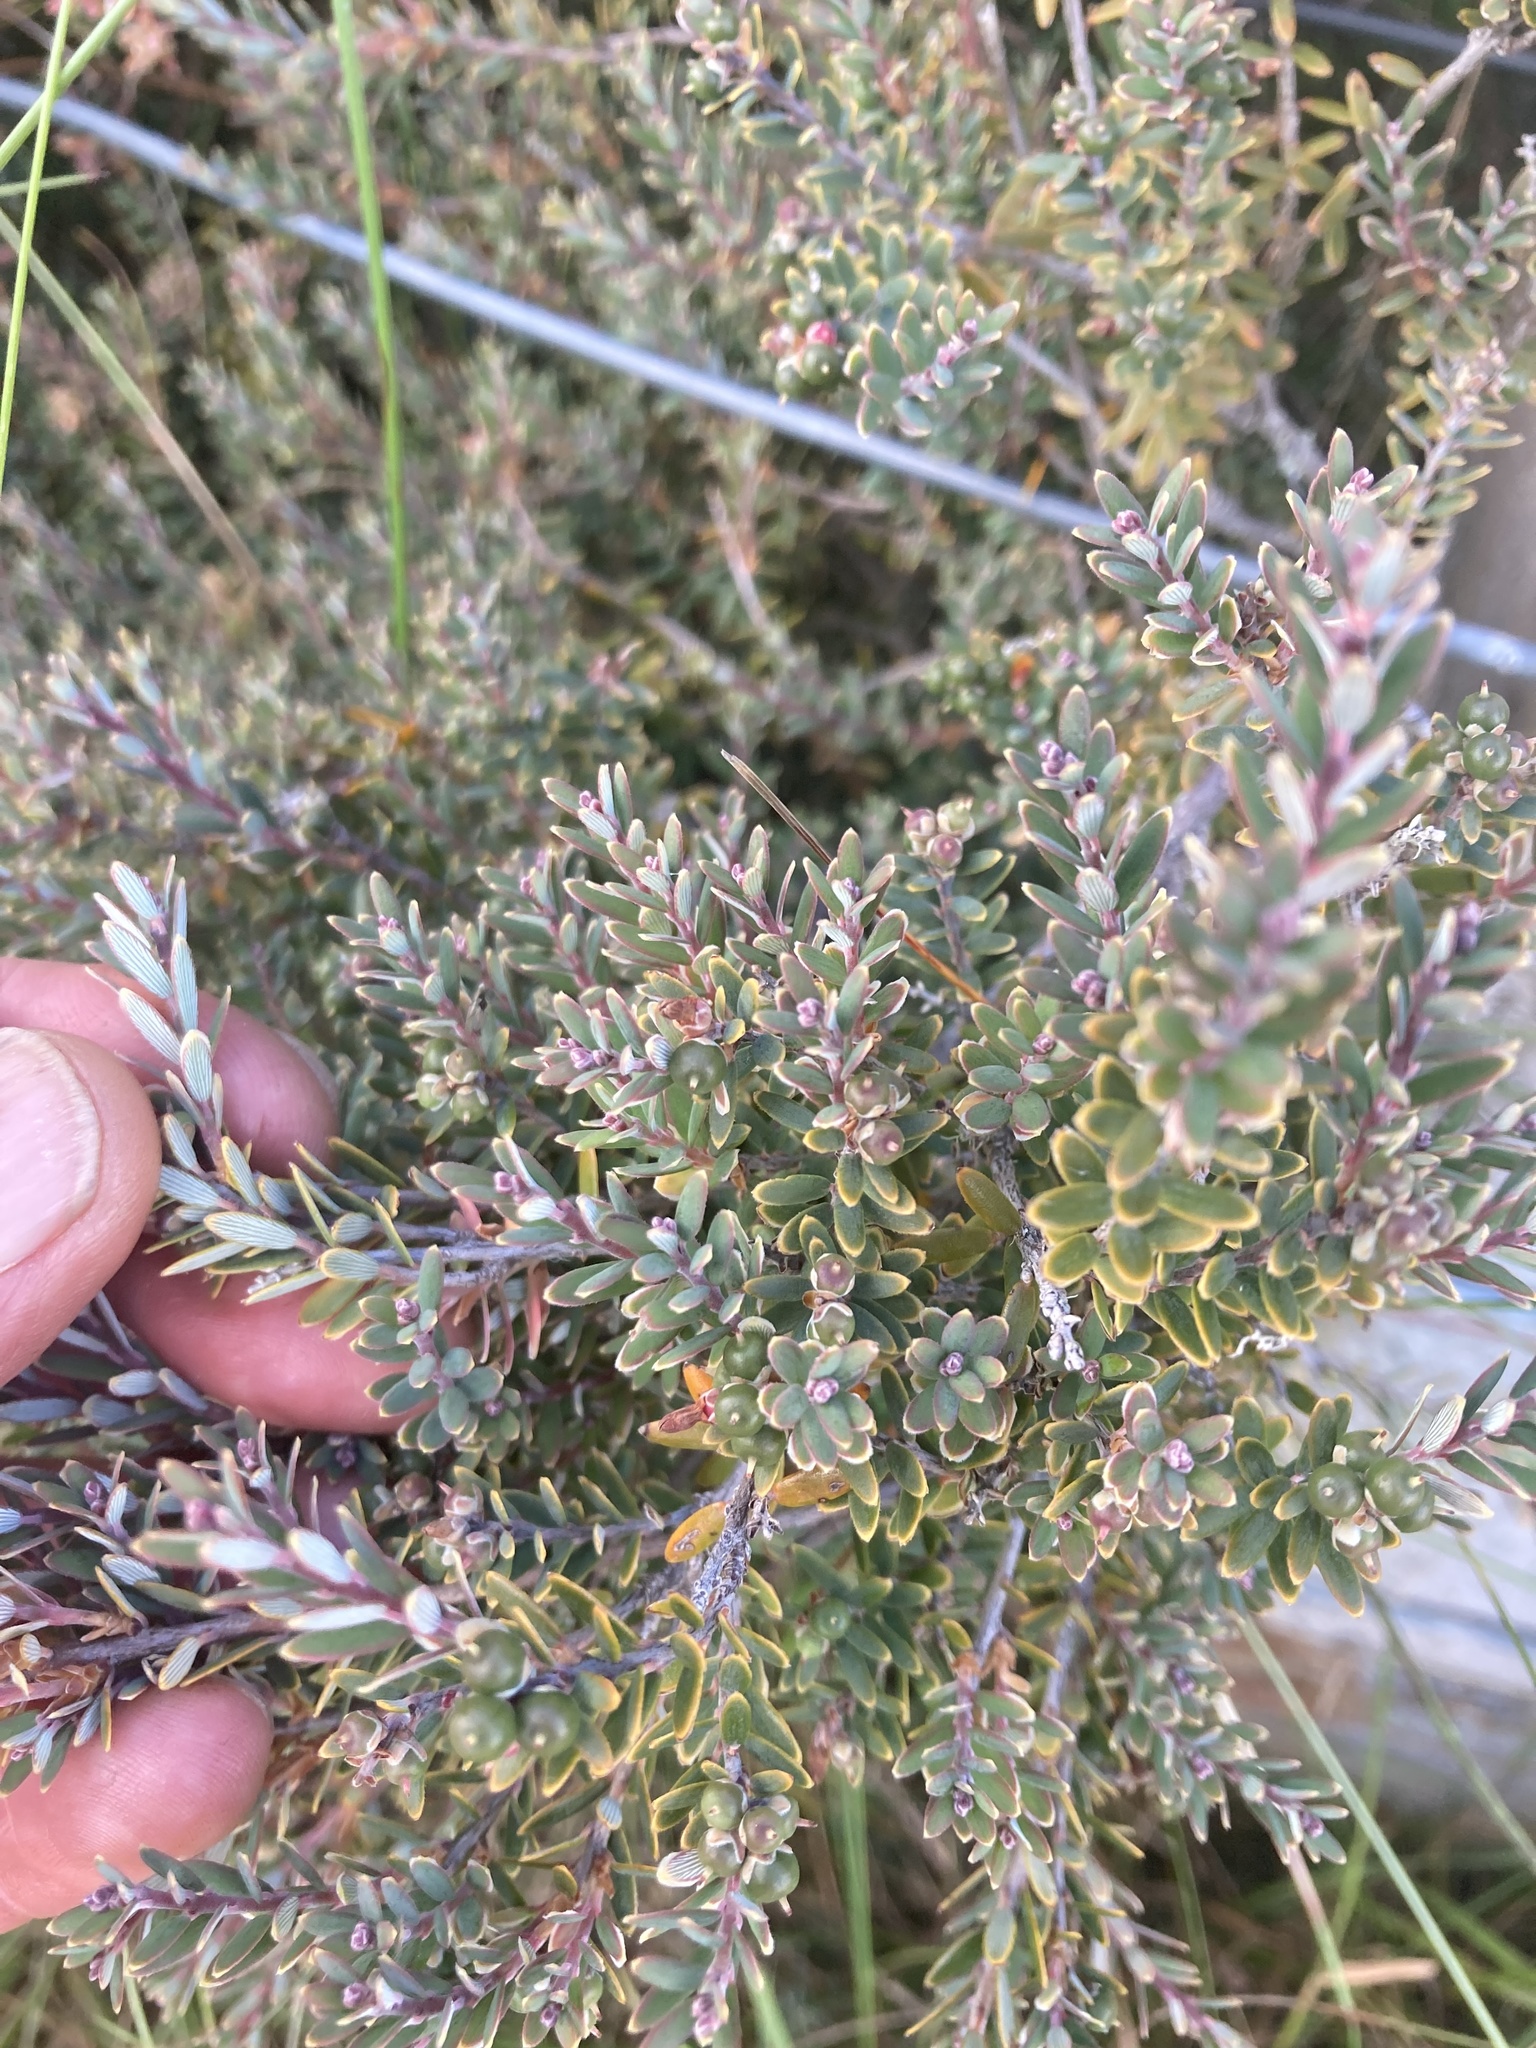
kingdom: Plantae
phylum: Tracheophyta
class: Magnoliopsida
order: Ericales
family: Ericaceae
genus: Acrothamnus
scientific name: Acrothamnus colensoi
